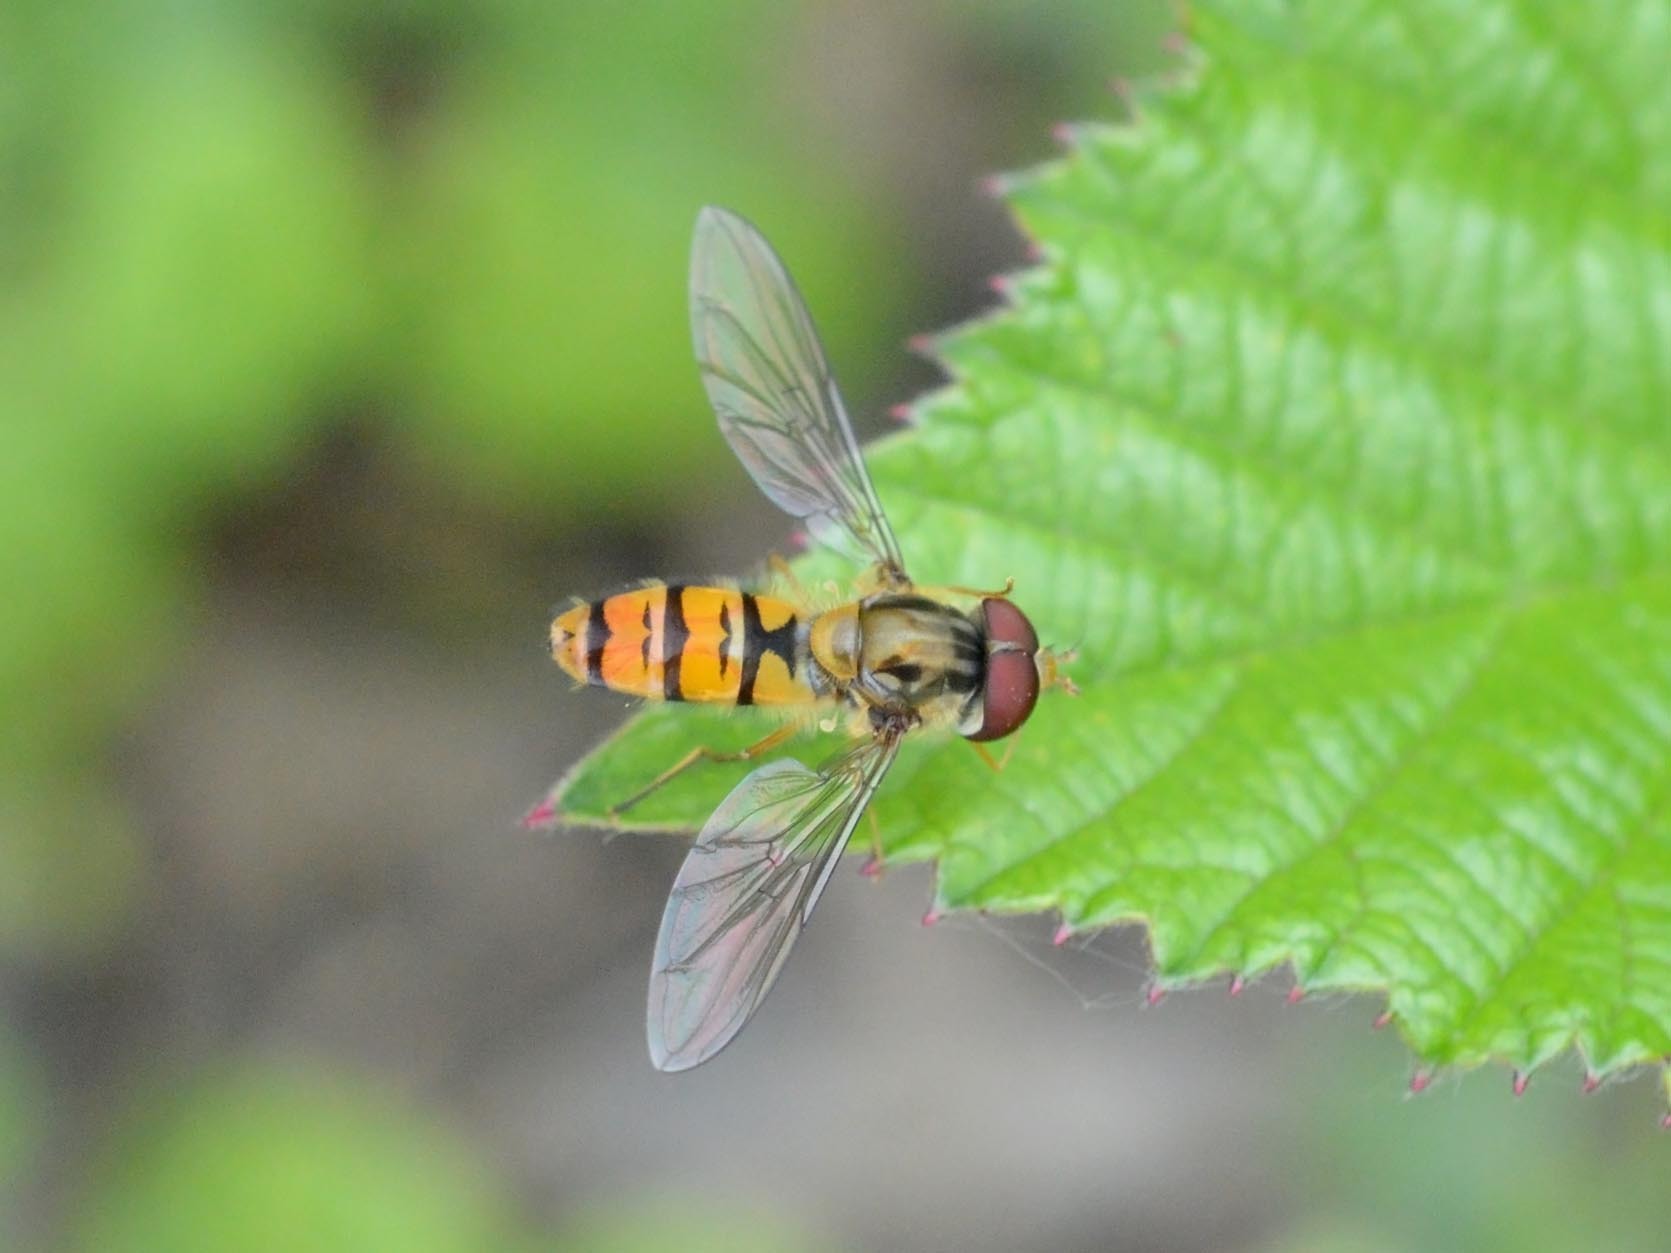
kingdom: Animalia
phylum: Arthropoda
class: Insecta
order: Diptera
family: Syrphidae
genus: Episyrphus
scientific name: Episyrphus balteatus
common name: Marmalade hoverfly
